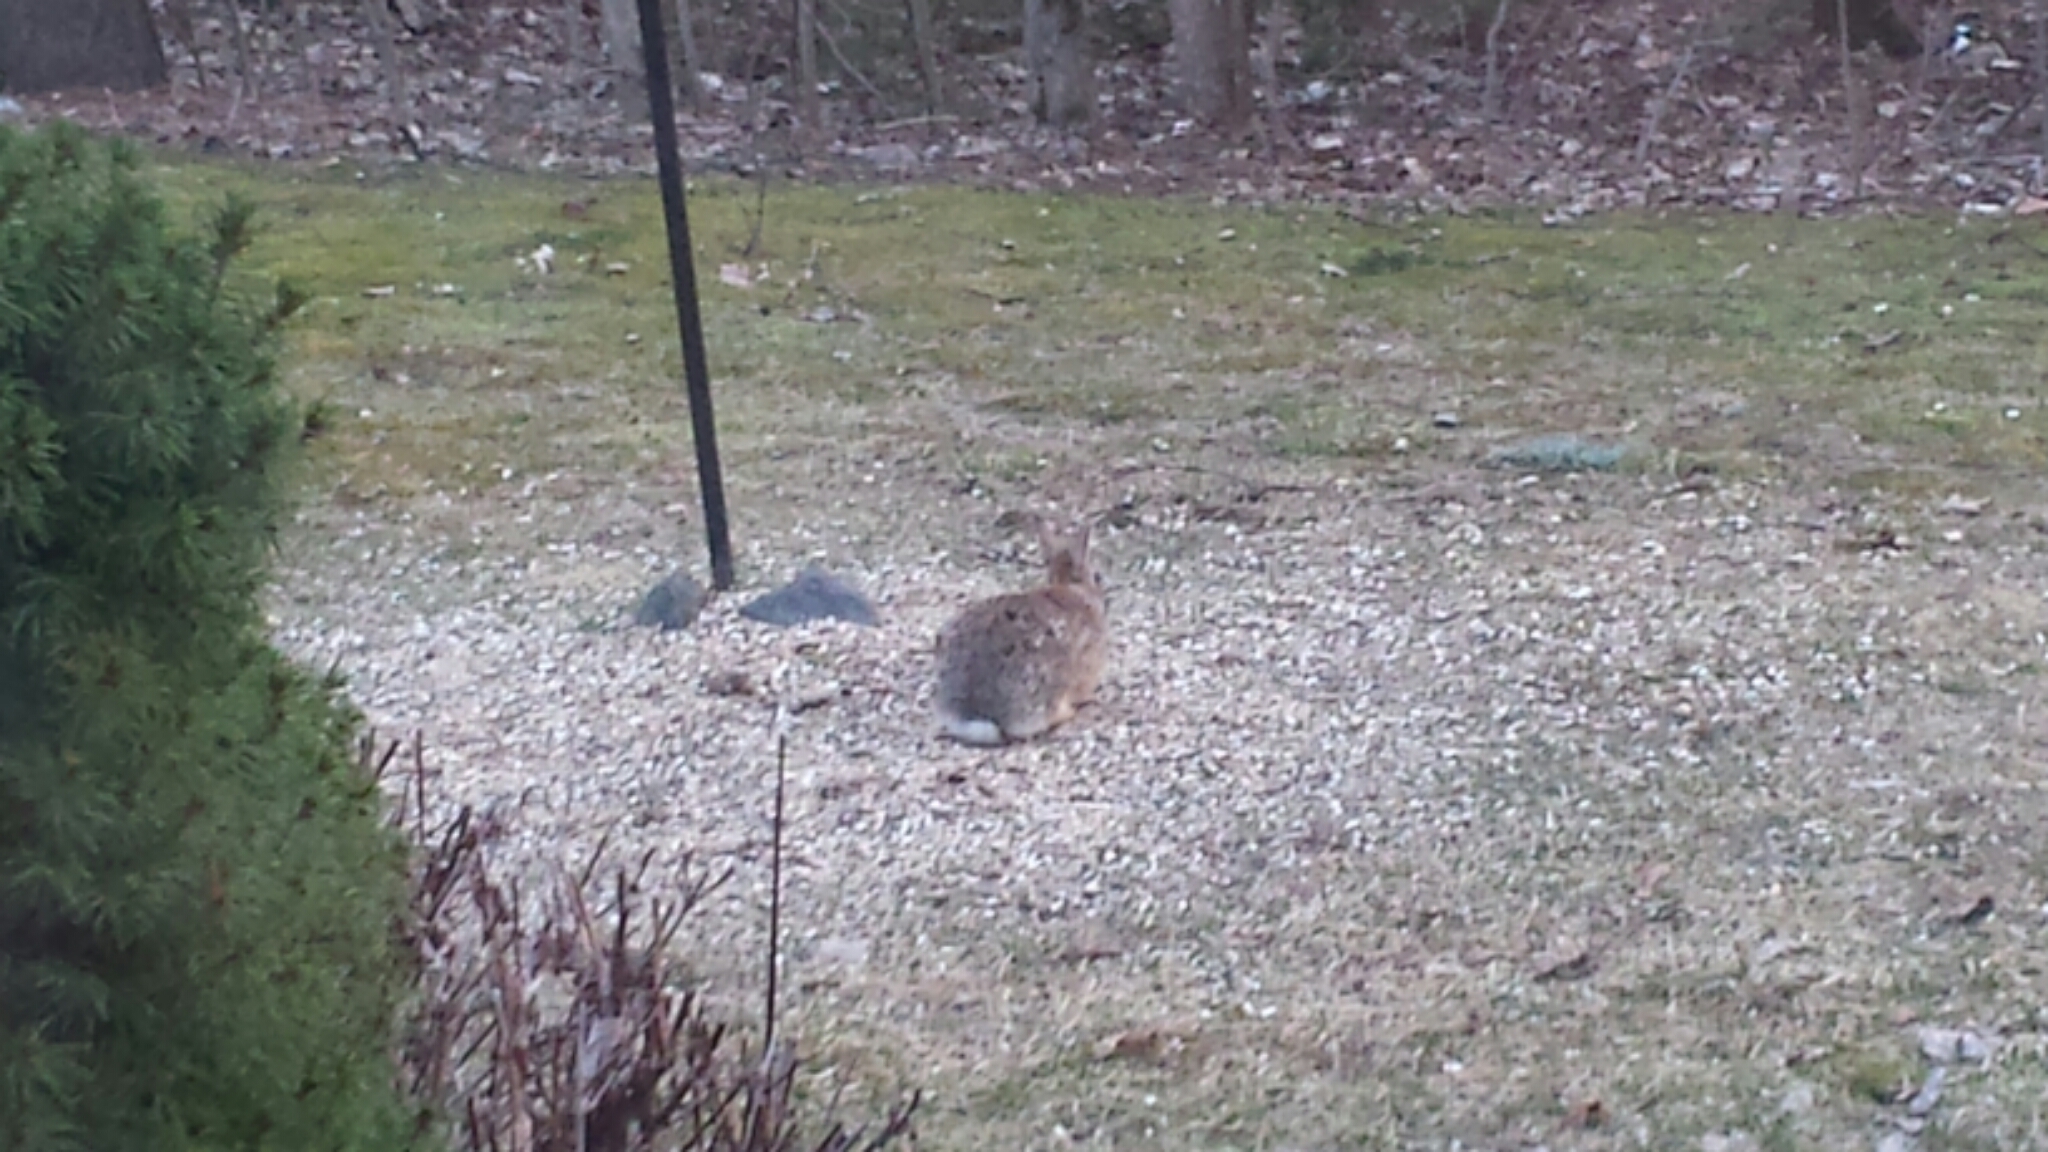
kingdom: Animalia
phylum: Chordata
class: Mammalia
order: Lagomorpha
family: Leporidae
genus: Sylvilagus
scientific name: Sylvilagus floridanus
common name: Eastern cottontail
